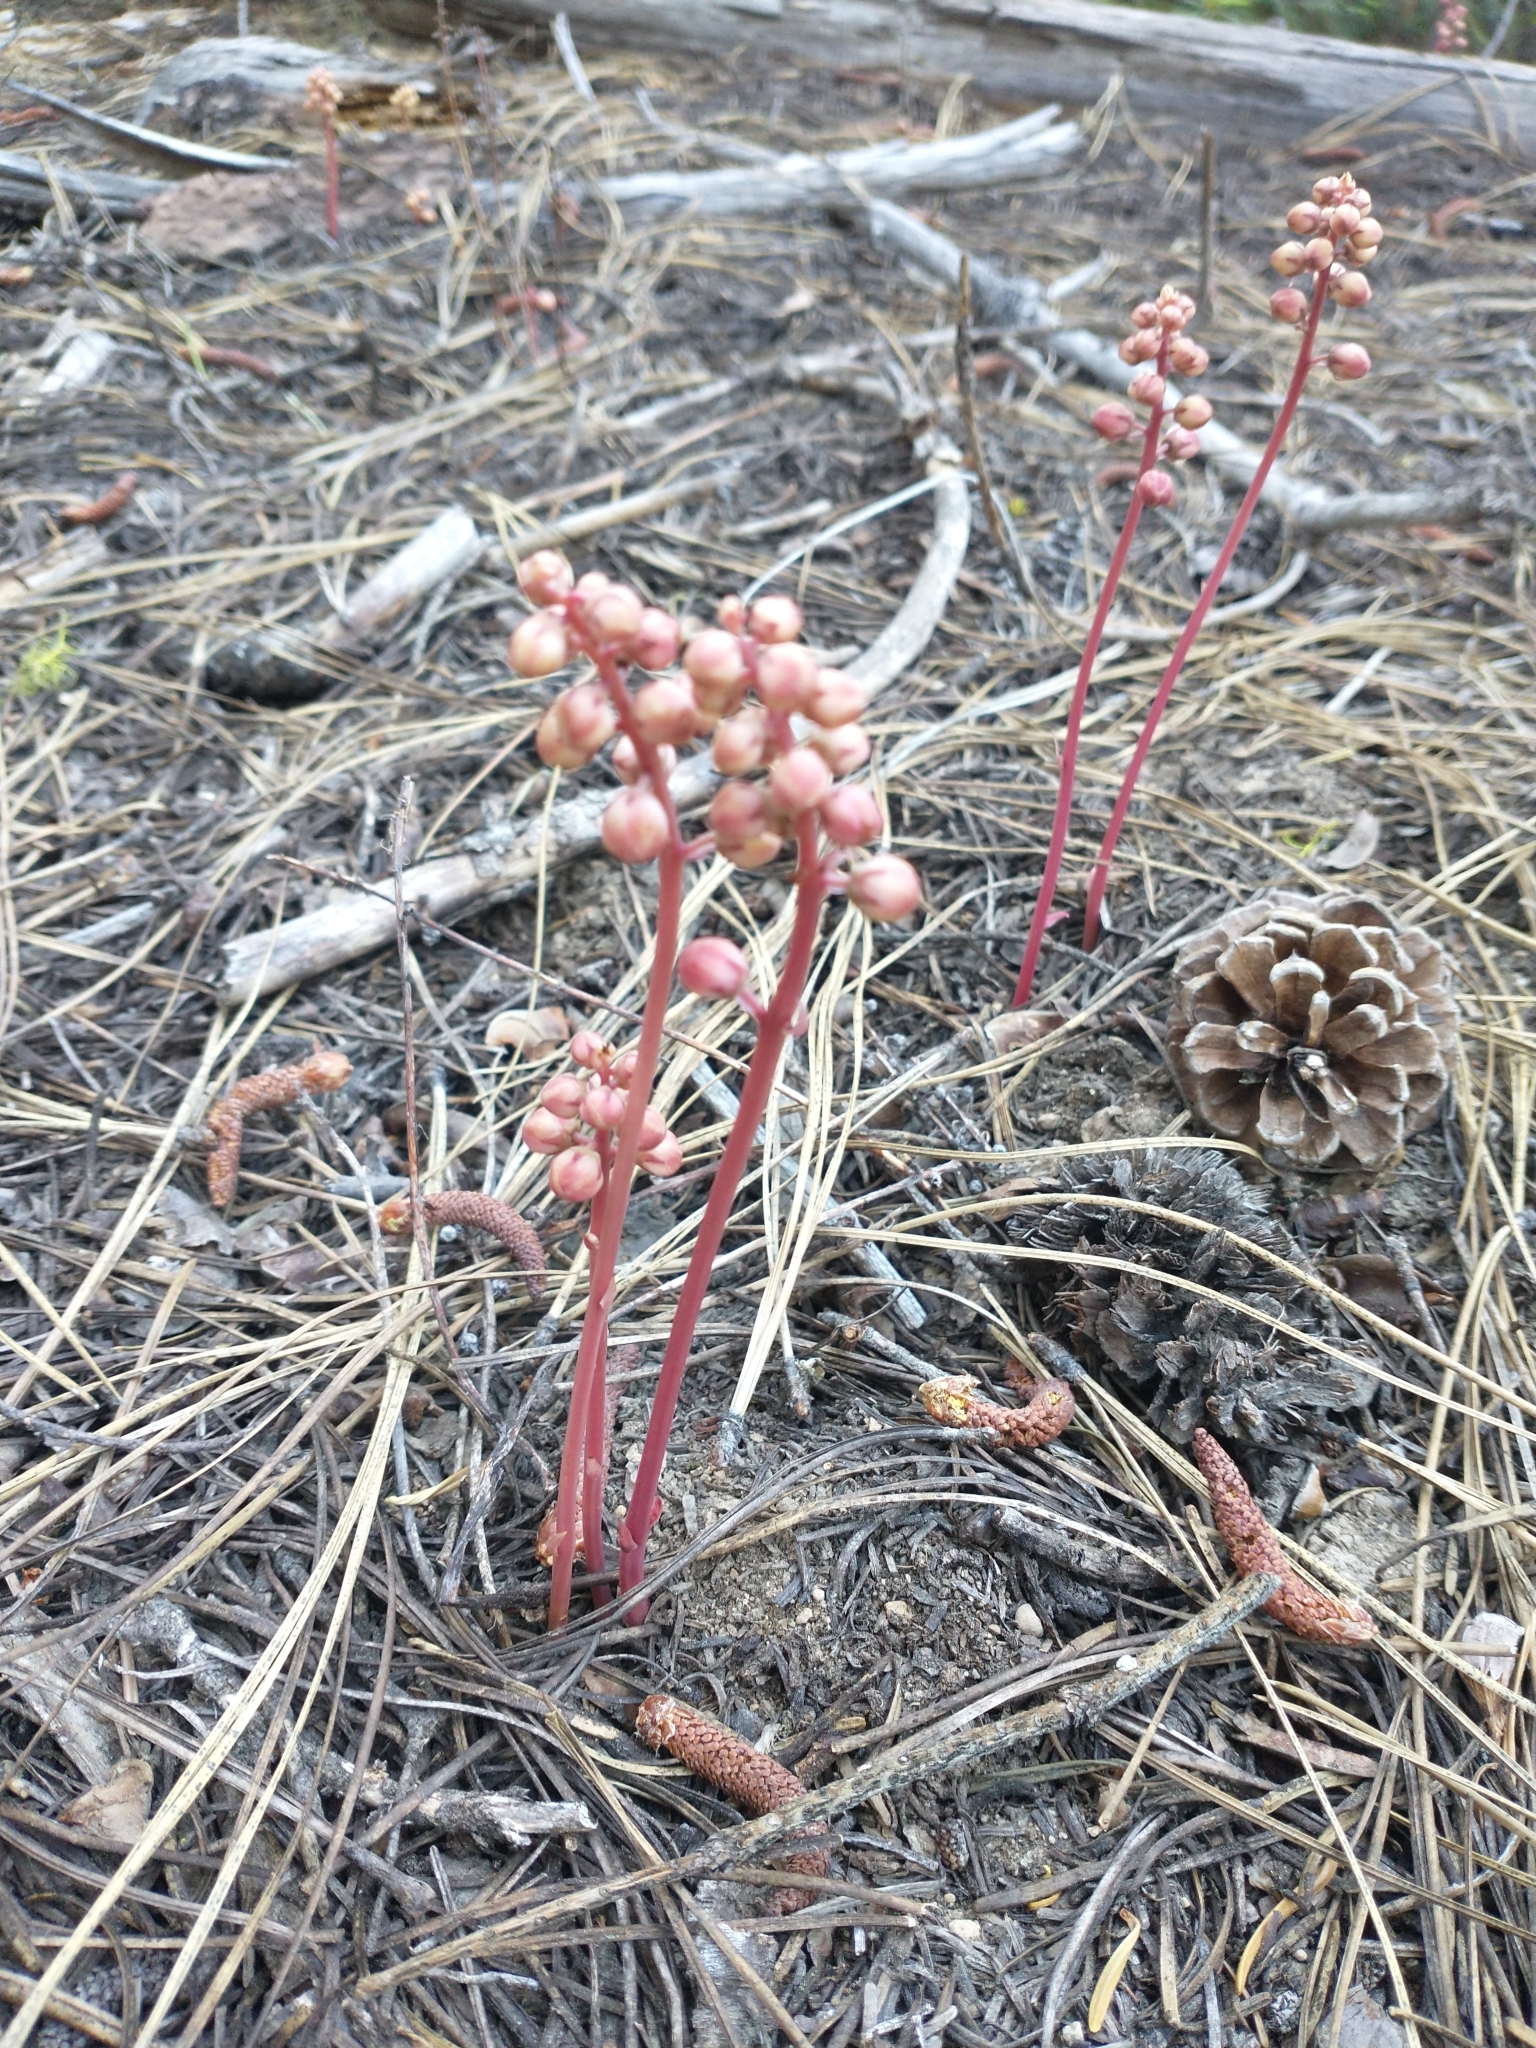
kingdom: Plantae
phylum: Tracheophyta
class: Magnoliopsida
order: Ericales
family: Ericaceae
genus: Pyrola
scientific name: Pyrola aphylla
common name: Leafless wintergreen
